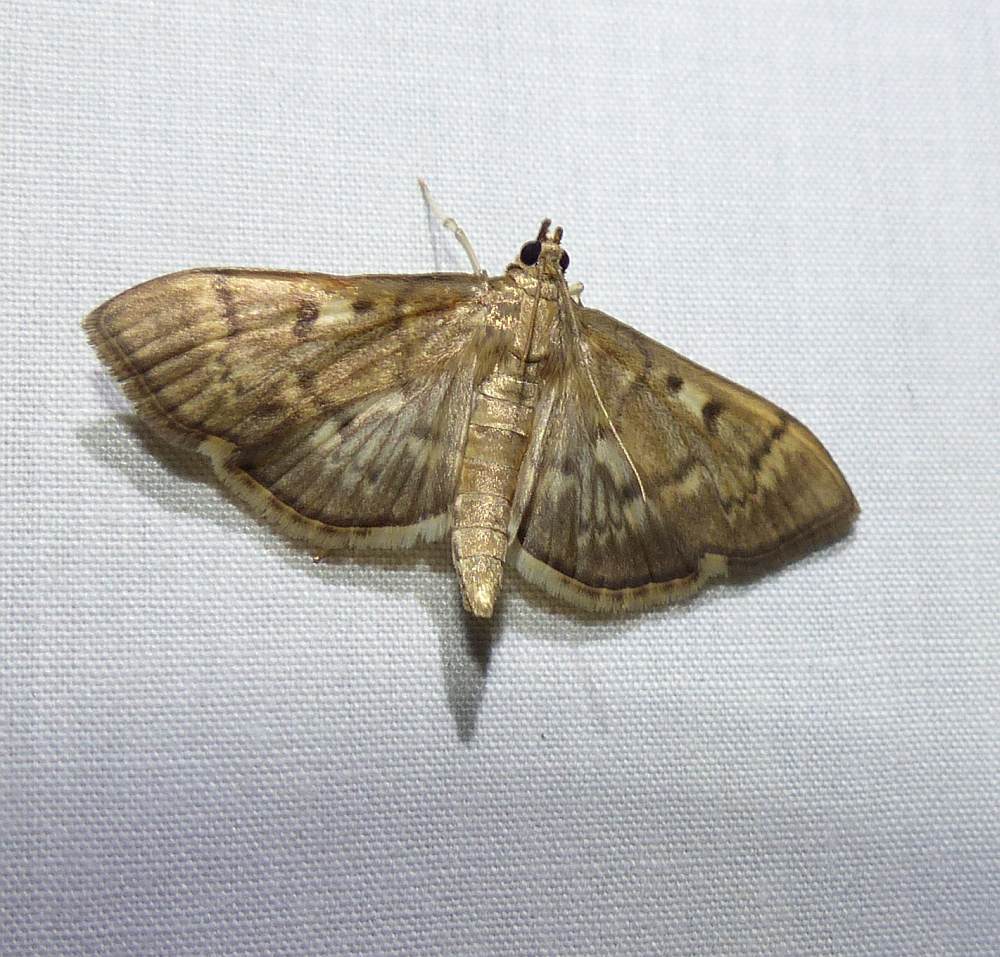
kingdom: Animalia
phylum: Arthropoda
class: Insecta
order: Lepidoptera
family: Crambidae
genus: Herpetogramma
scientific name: Herpetogramma thestealis
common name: Zigzag herpetogramma moth
